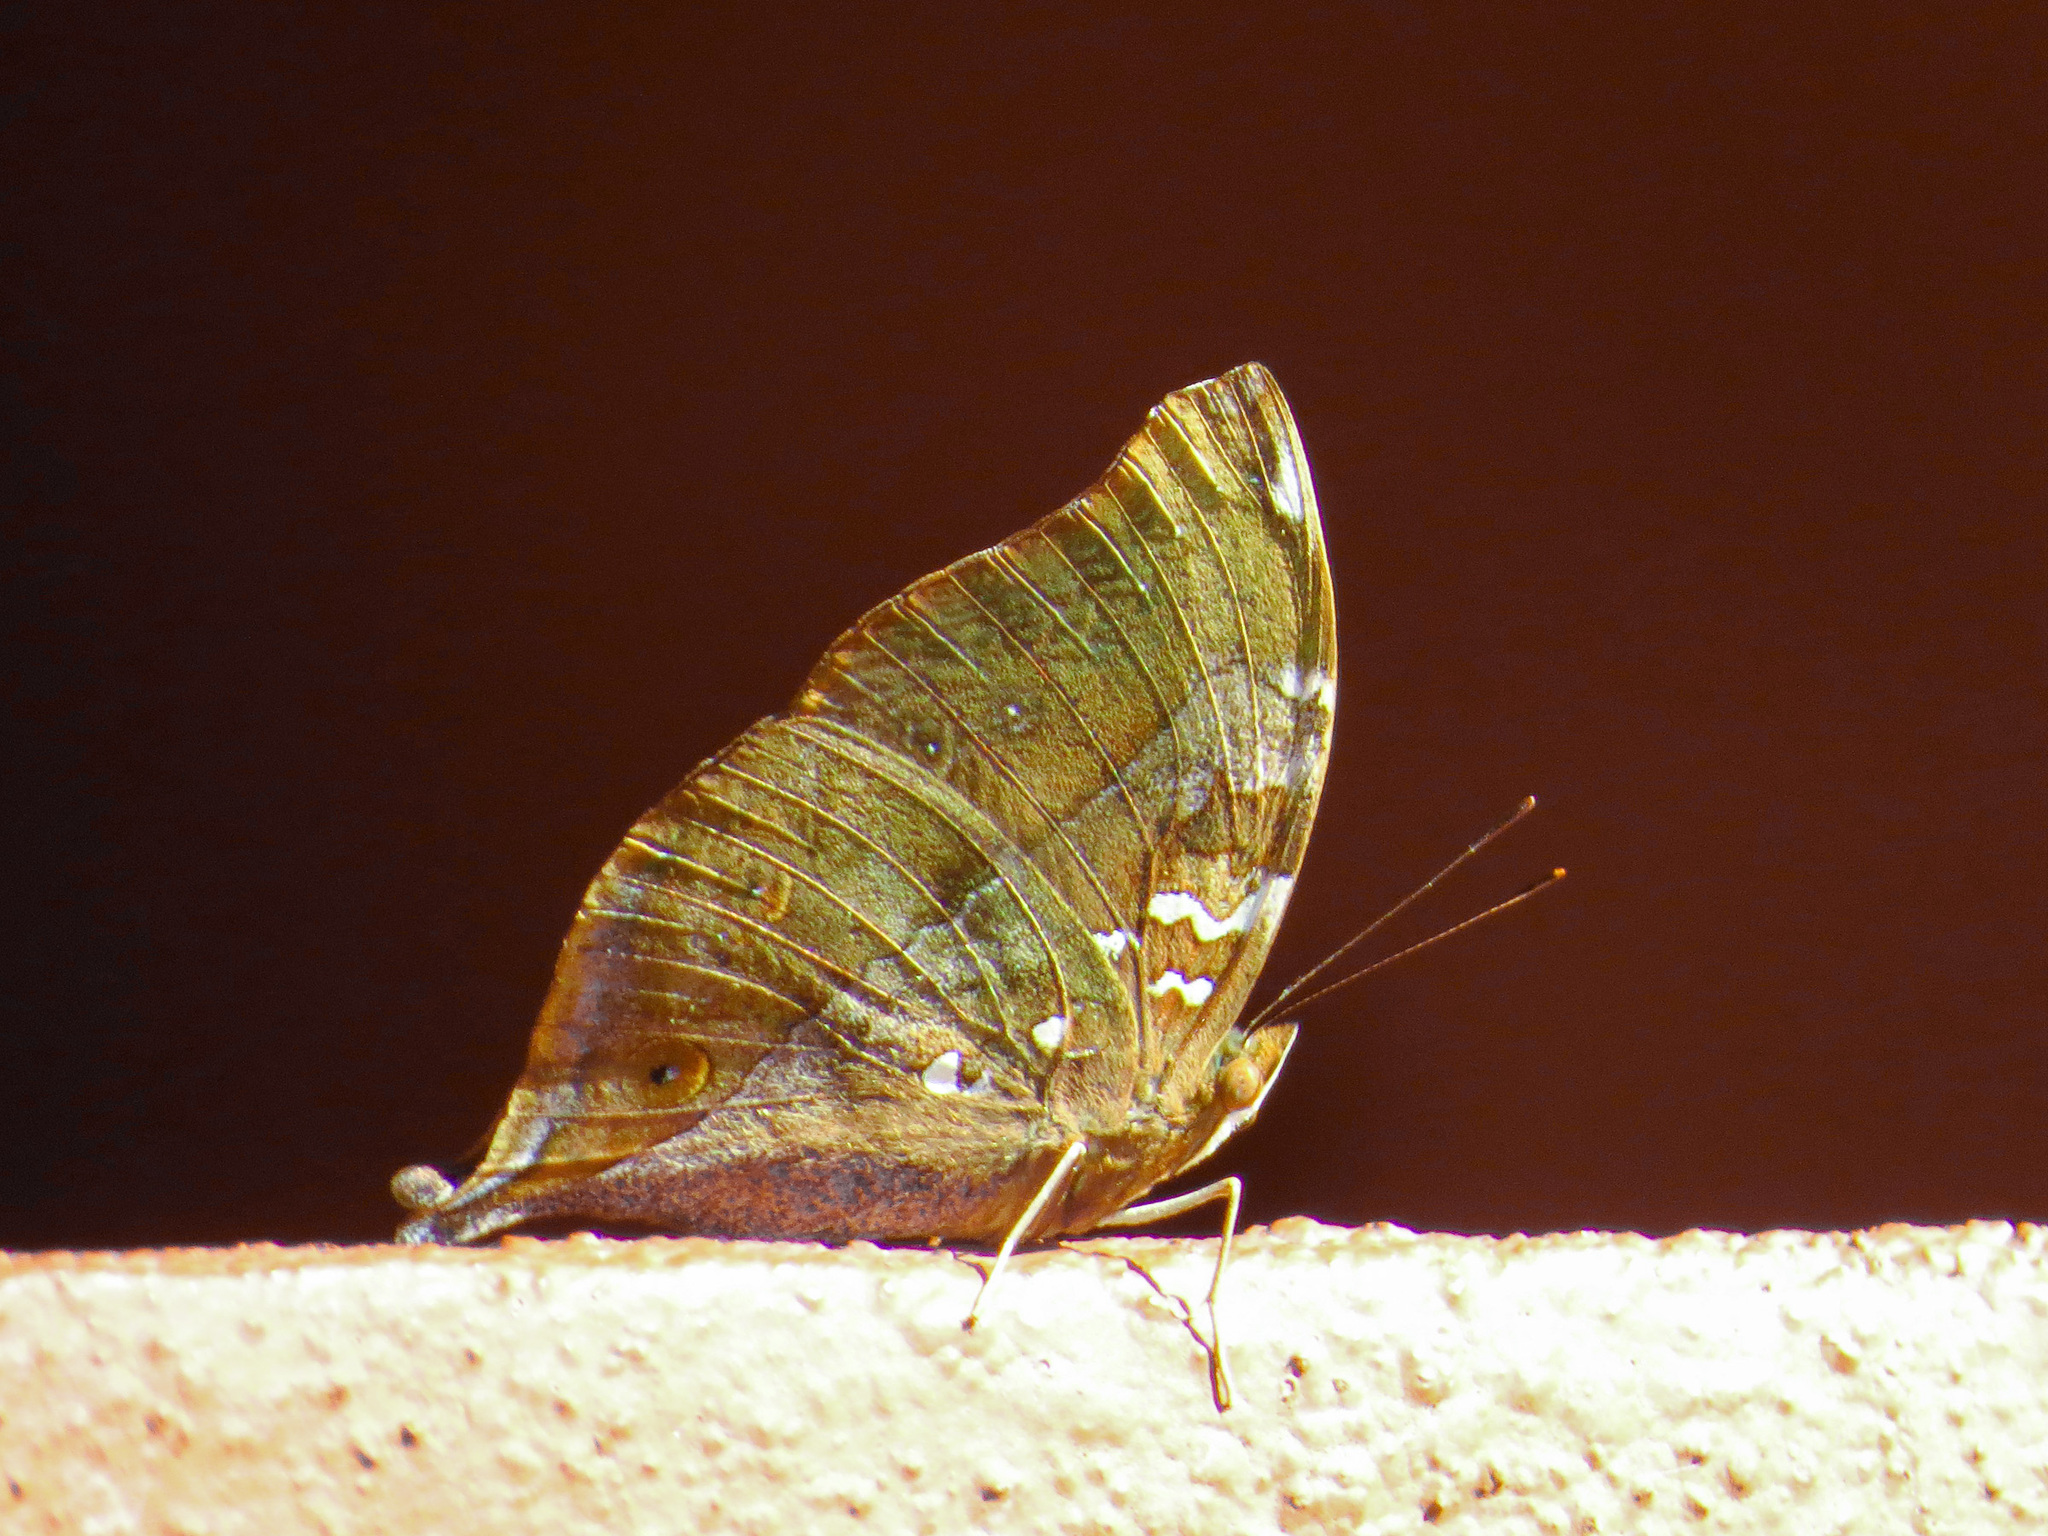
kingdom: Animalia
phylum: Arthropoda
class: Insecta
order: Lepidoptera
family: Nymphalidae
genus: Doleschallia
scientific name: Doleschallia bisaltide
